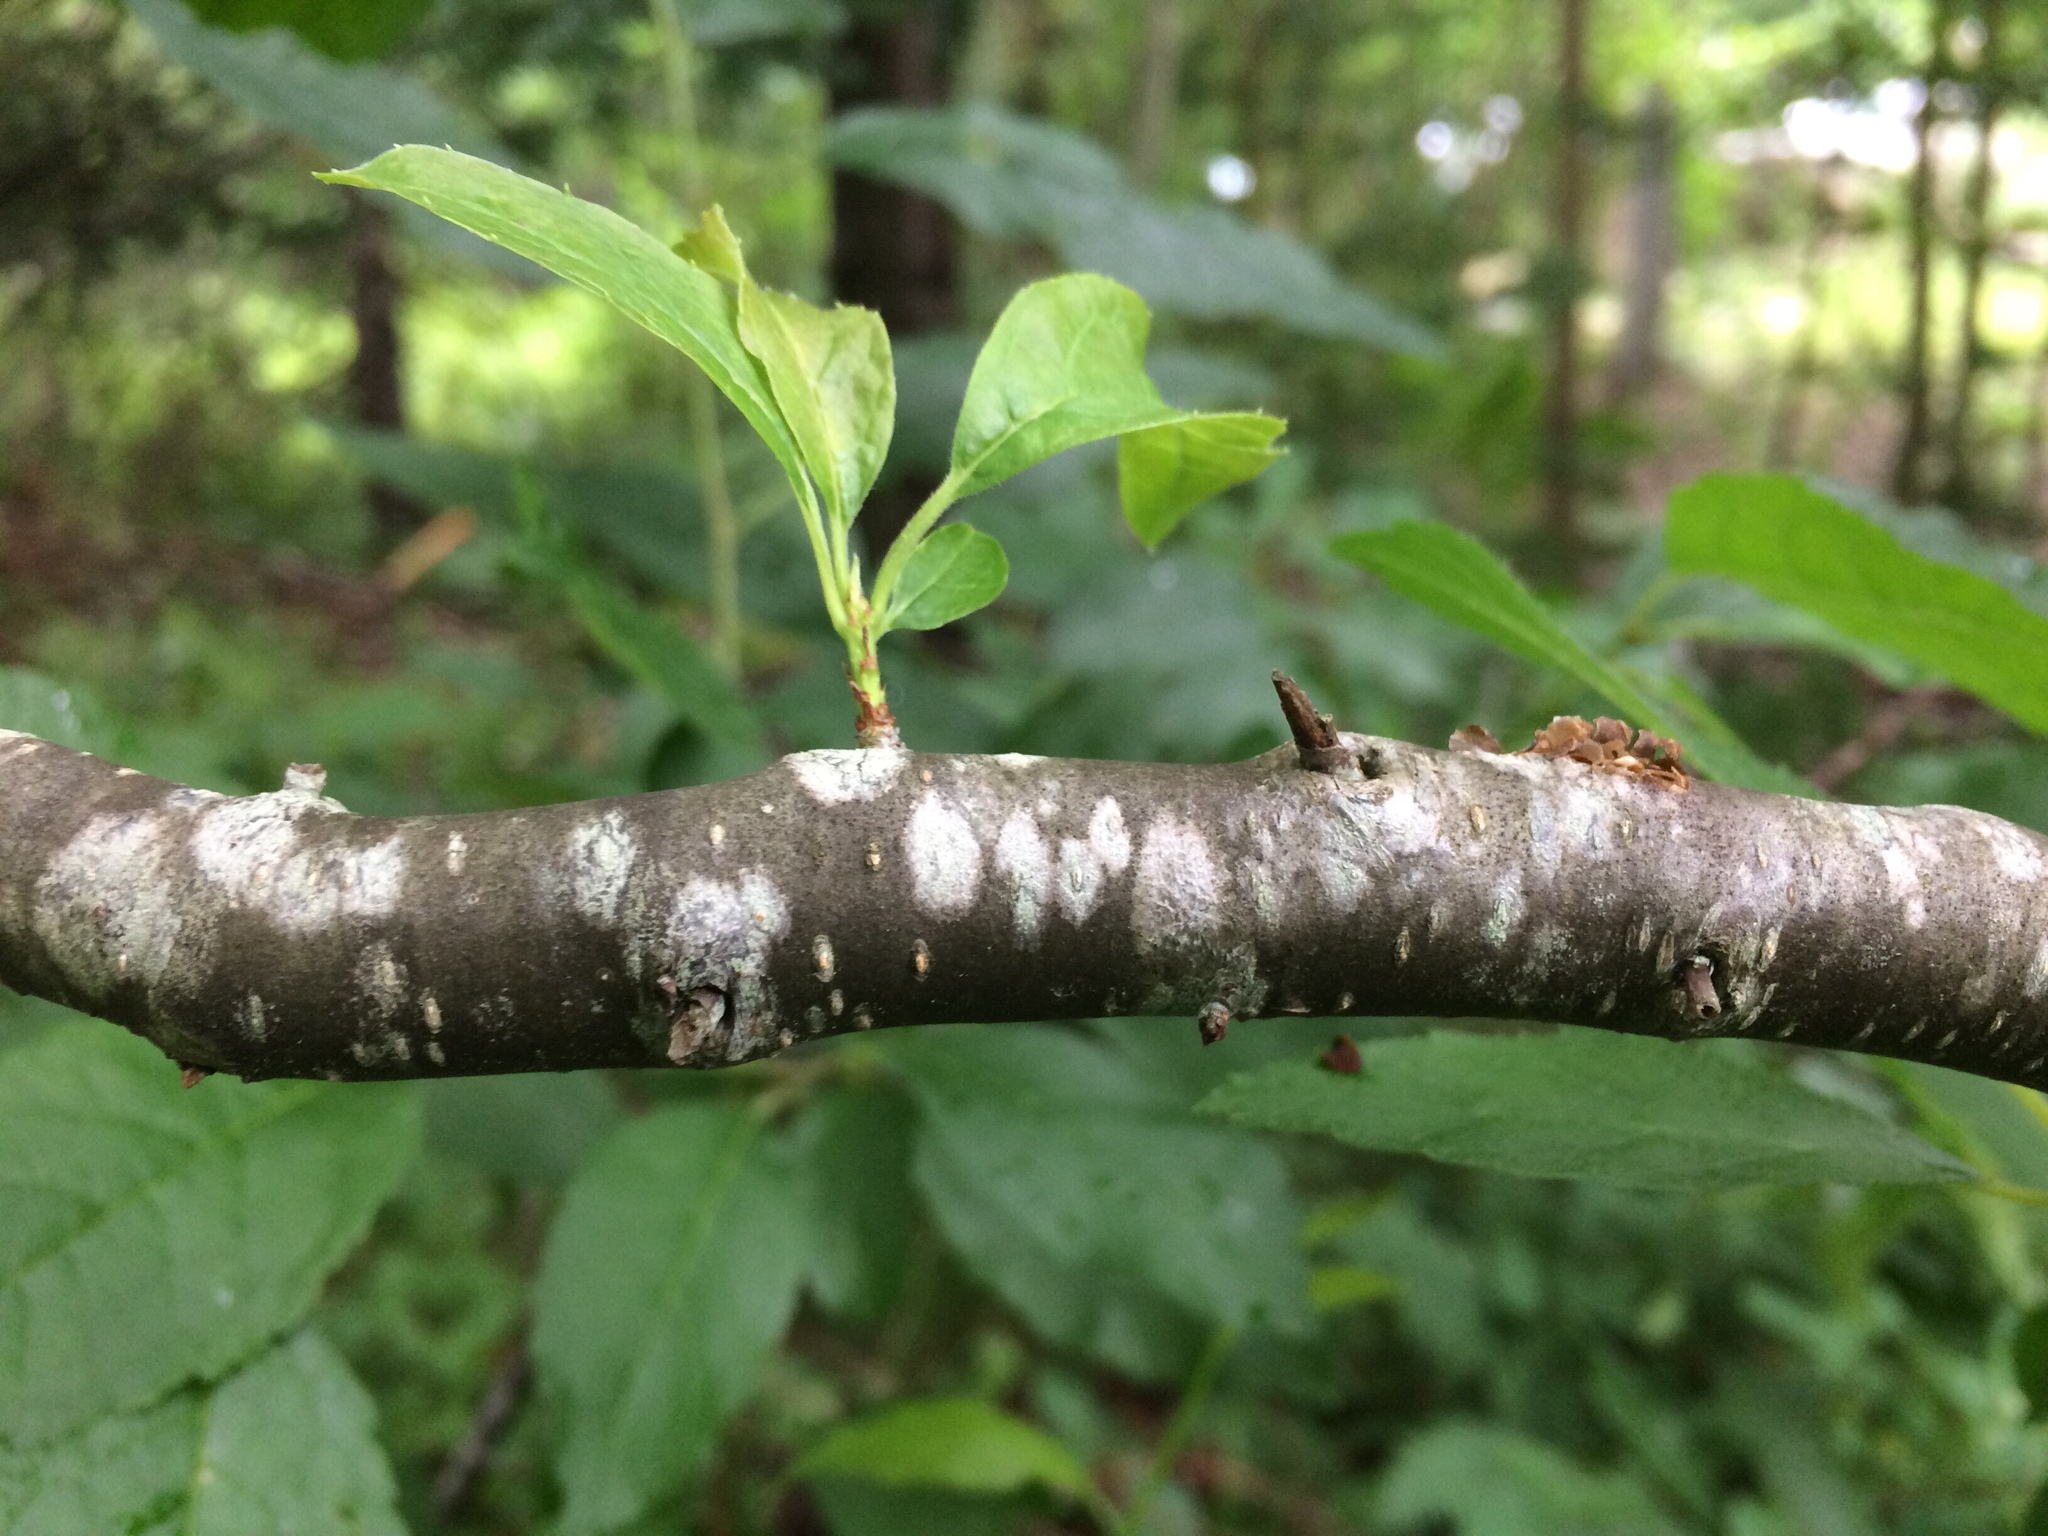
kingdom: Plantae
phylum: Tracheophyta
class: Magnoliopsida
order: Aquifoliales
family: Aquifoliaceae
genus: Ilex
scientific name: Ilex verticillata
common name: Virginia winterberry
